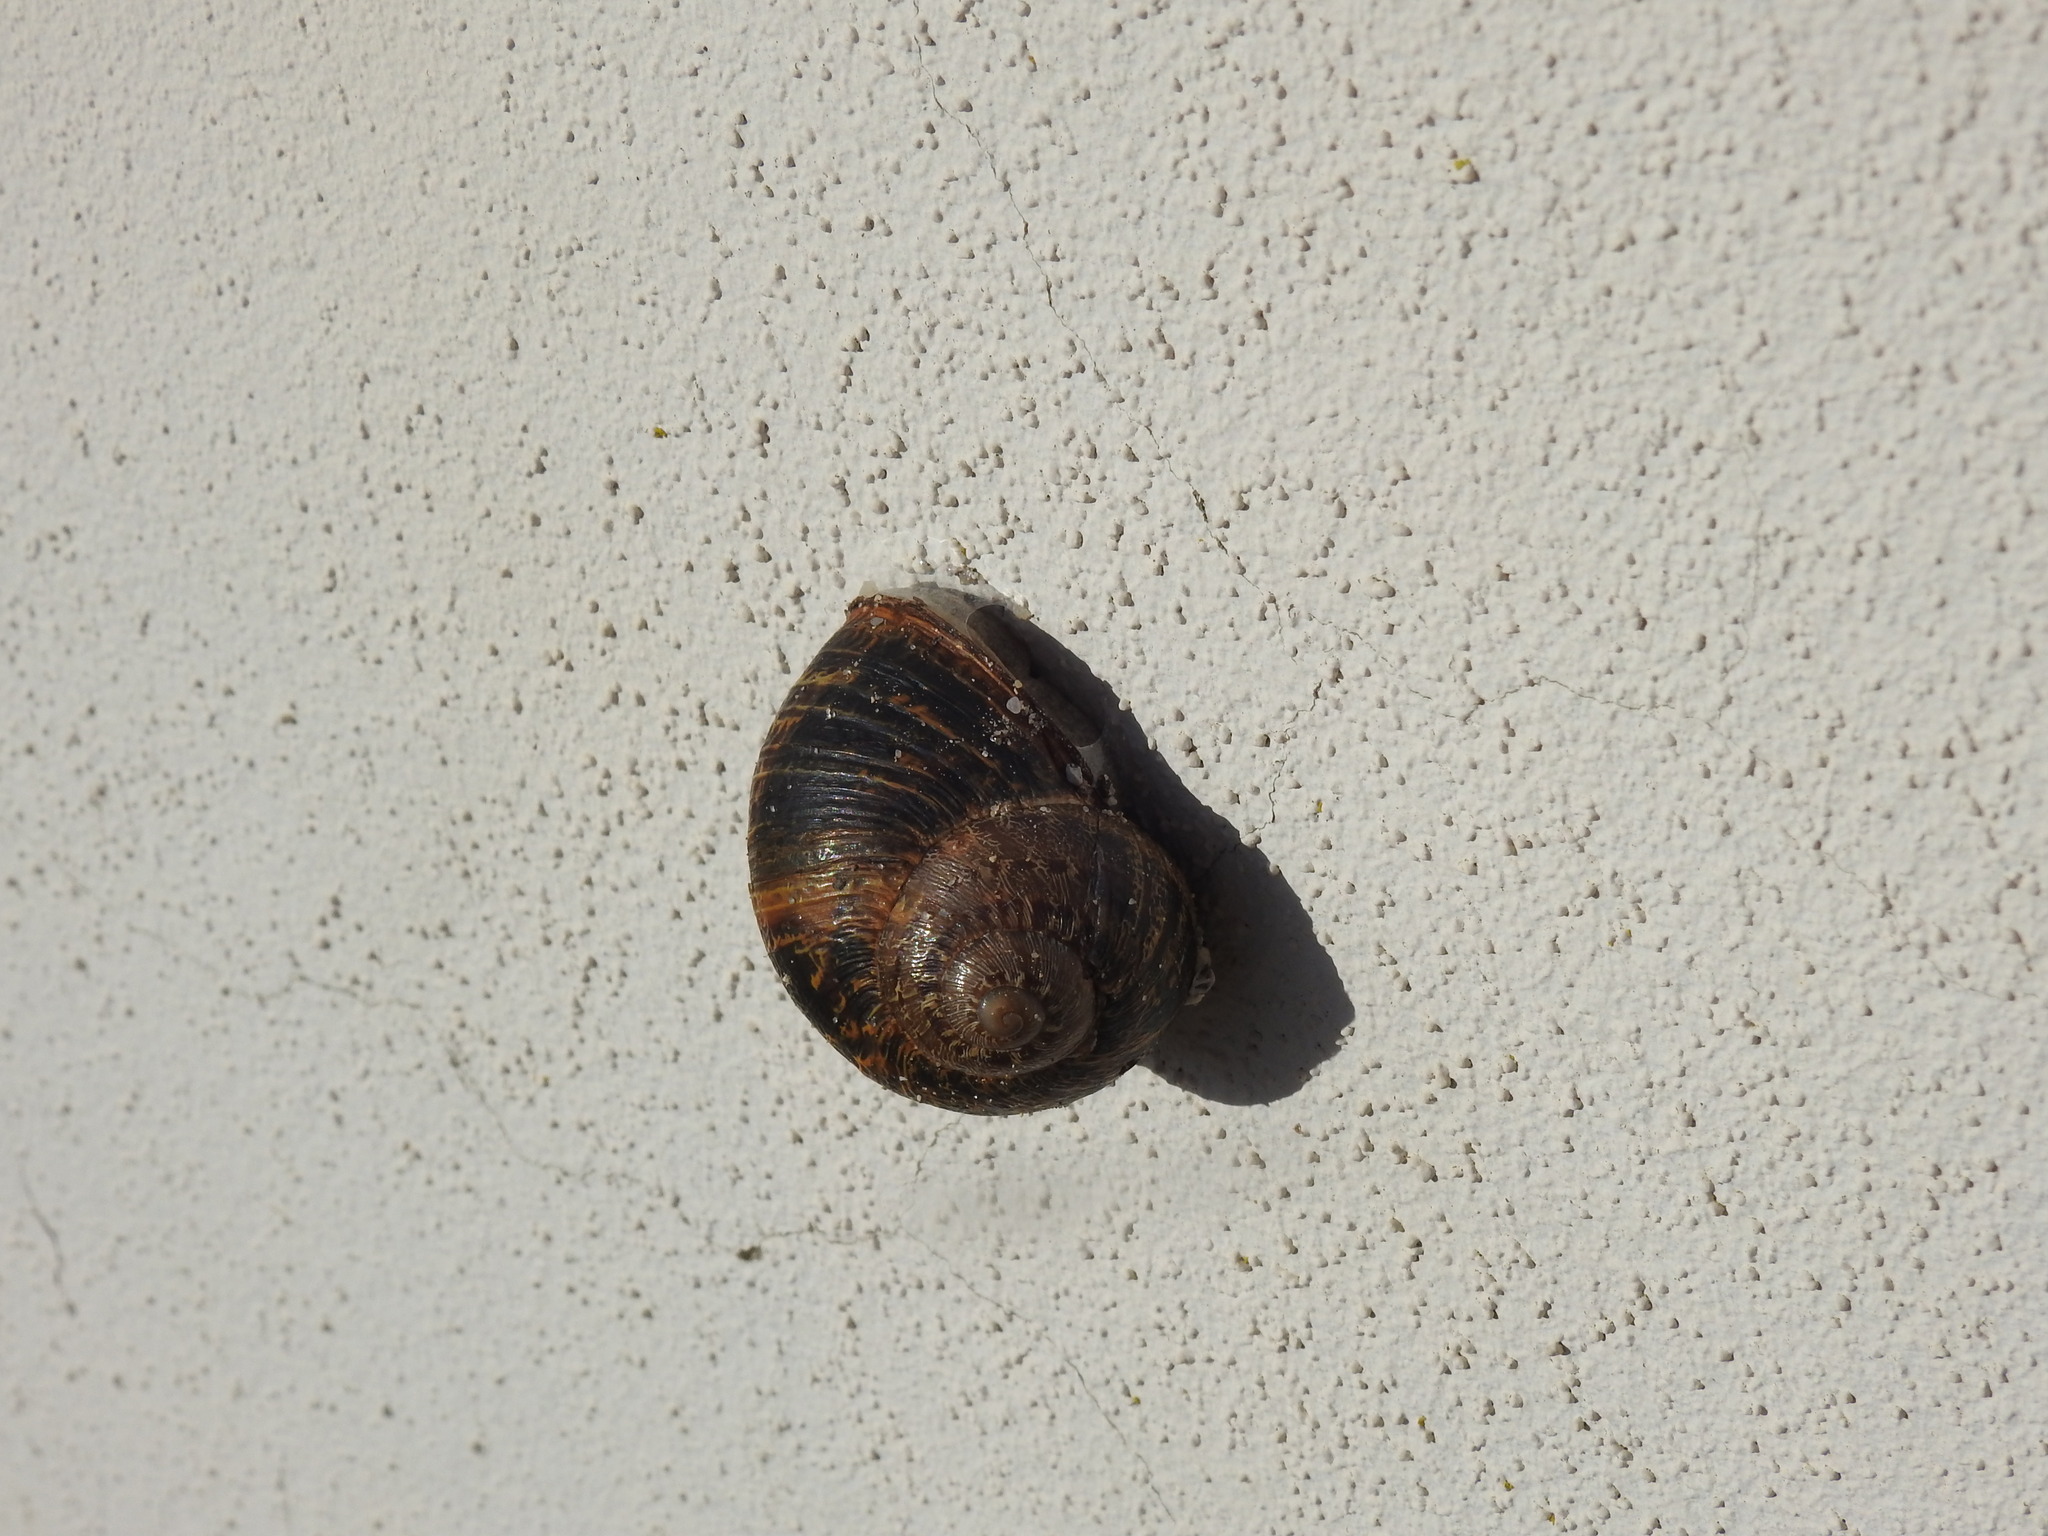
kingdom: Animalia
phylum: Mollusca
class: Gastropoda
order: Stylommatophora
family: Helicidae
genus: Cornu
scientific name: Cornu aspersum
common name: Brown garden snail
